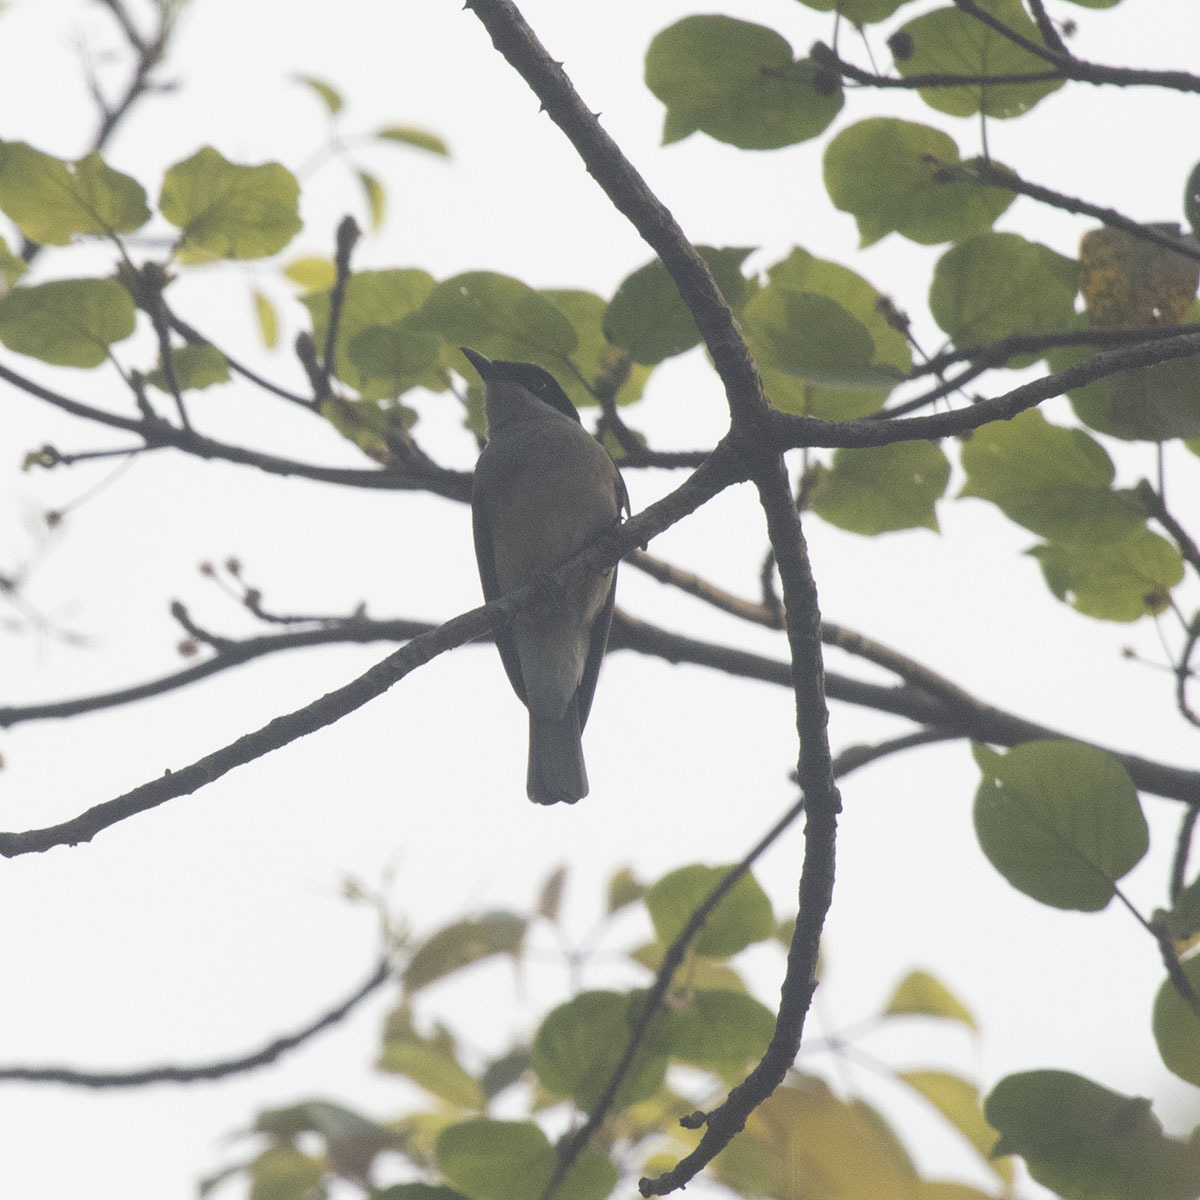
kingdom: Animalia
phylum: Chordata
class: Aves
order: Passeriformes
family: Tephrodornithidae
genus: Tephrodornis
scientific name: Tephrodornis sylvicola
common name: Malabar woodshrike
